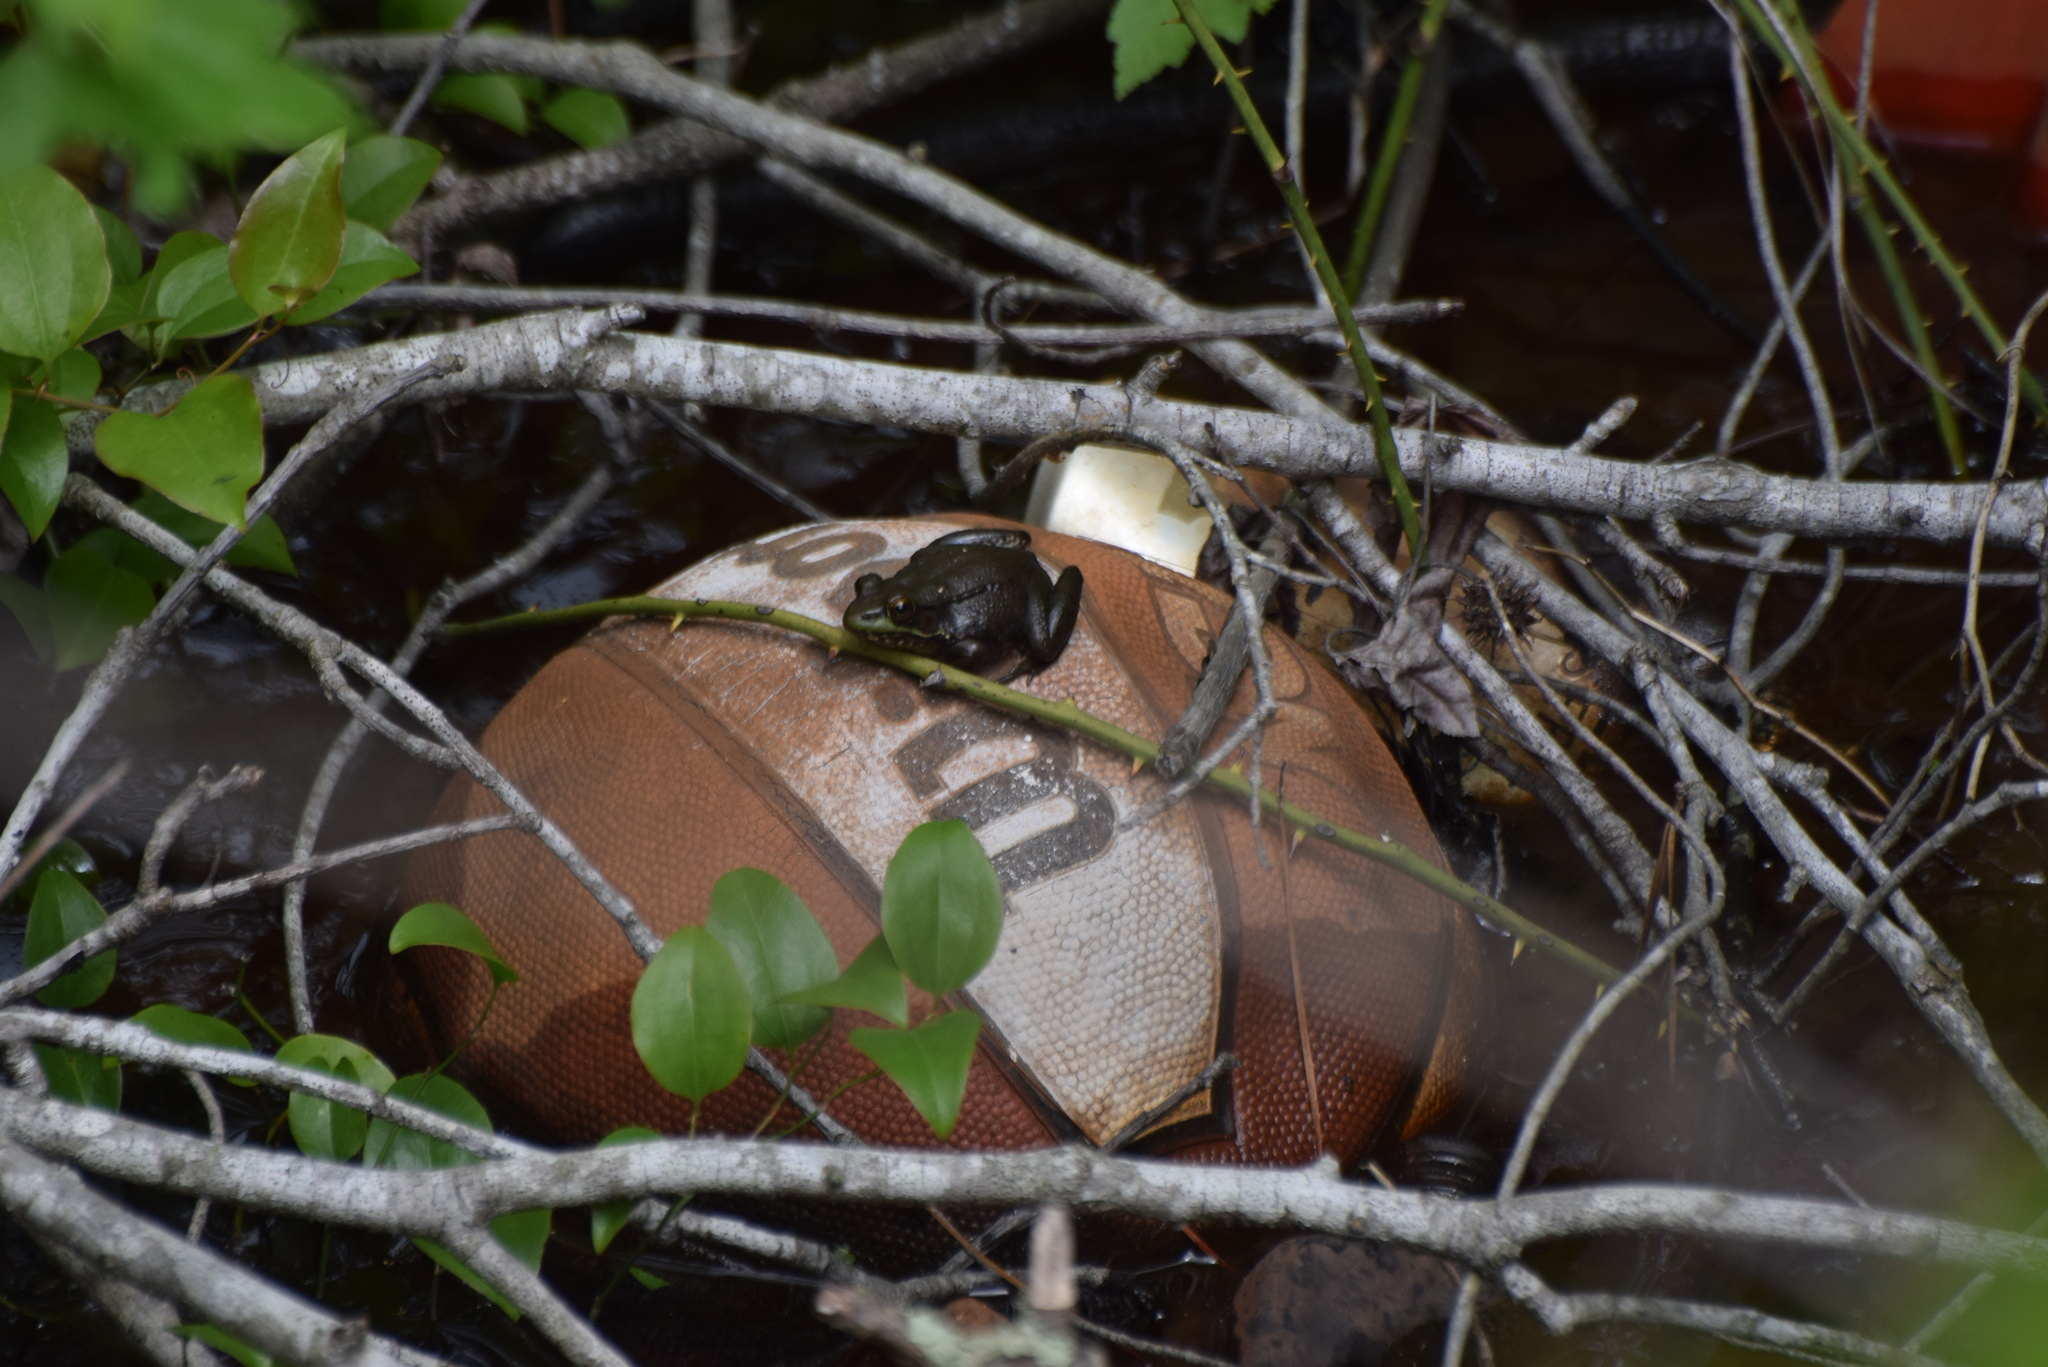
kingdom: Animalia
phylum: Chordata
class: Amphibia
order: Anura
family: Ranidae
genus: Lithobates
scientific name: Lithobates clamitans
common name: Green frog
